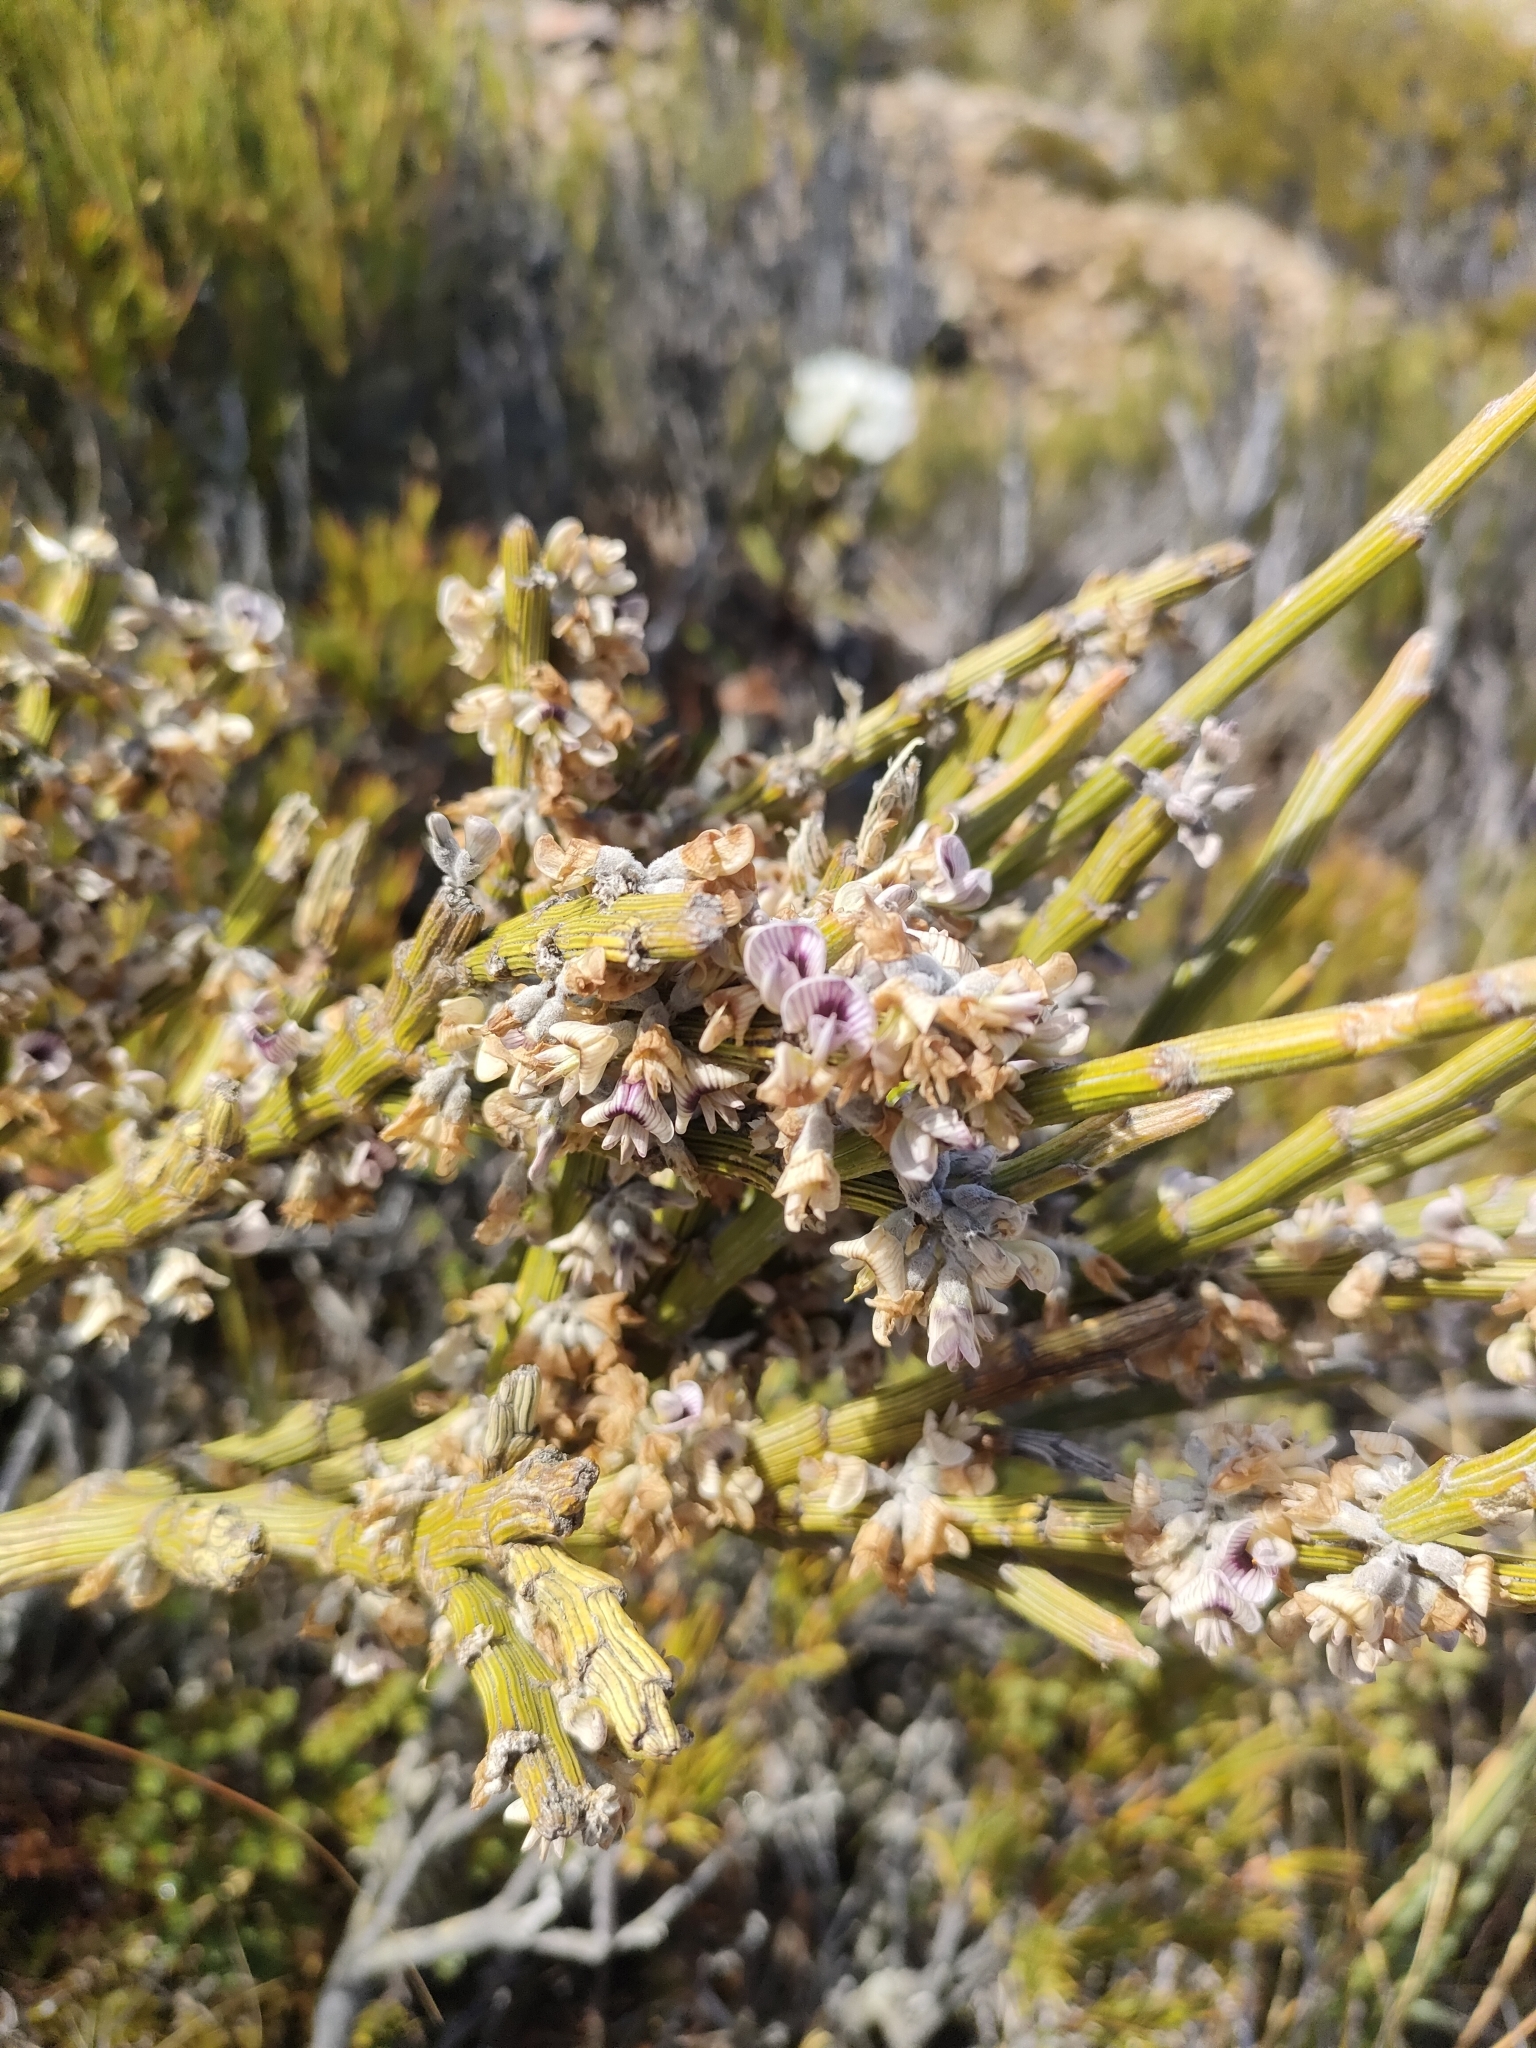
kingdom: Plantae
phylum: Tracheophyta
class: Magnoliopsida
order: Fabales
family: Fabaceae
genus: Carmichaelia
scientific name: Carmichaelia crassicaulis
